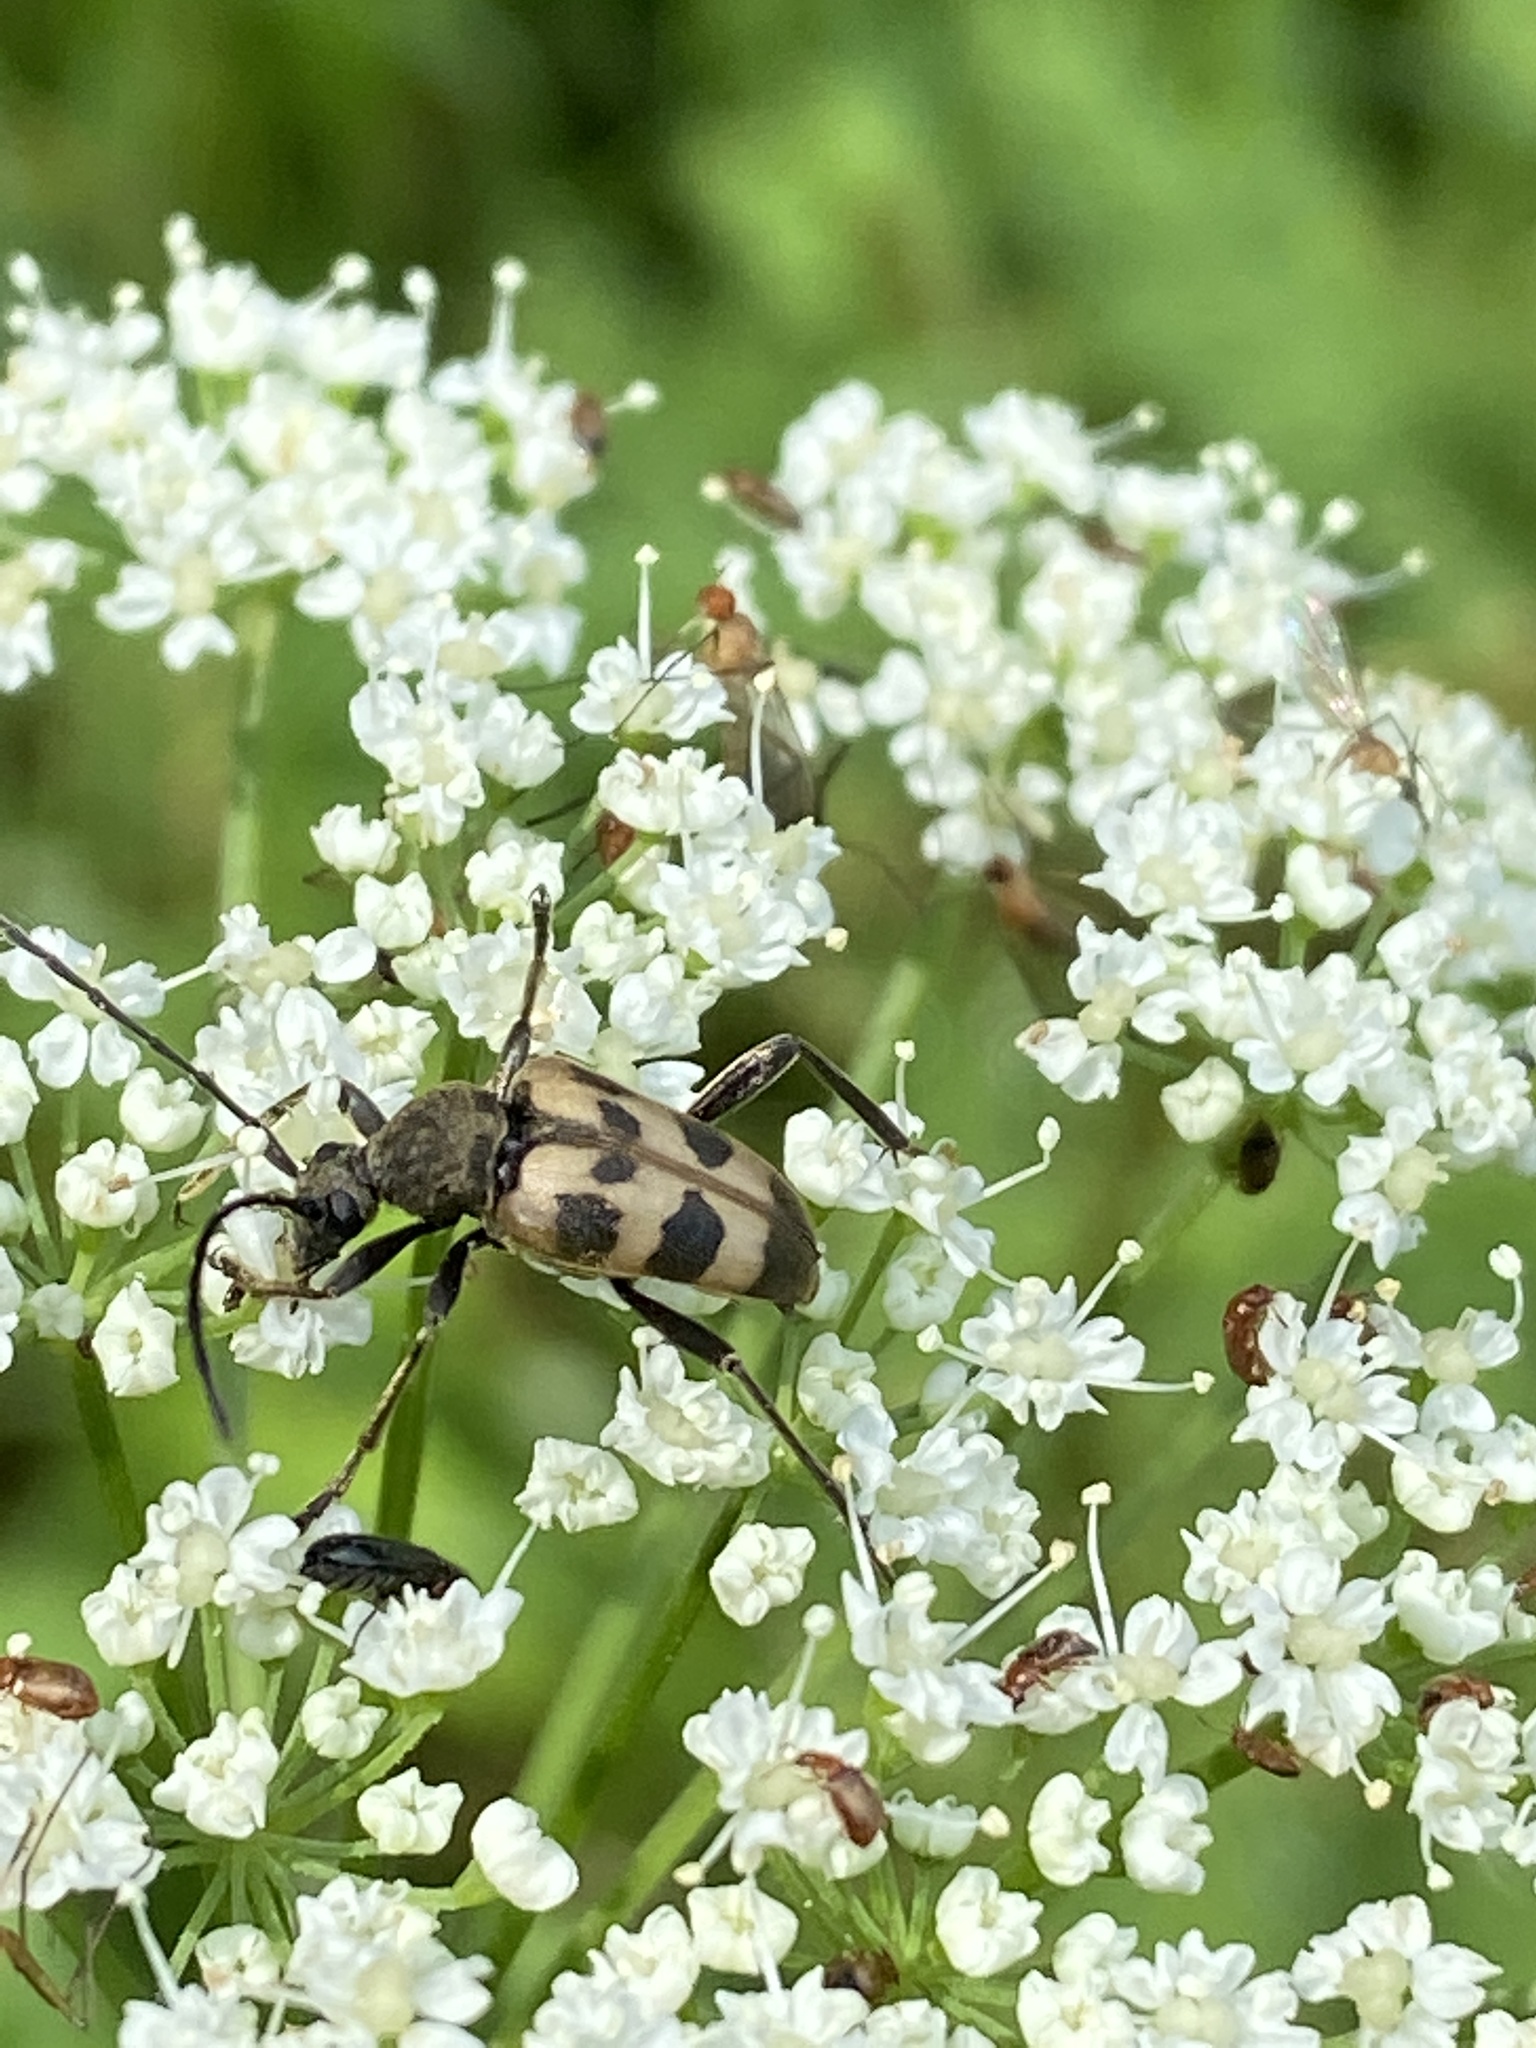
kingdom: Animalia
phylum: Arthropoda
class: Insecta
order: Coleoptera
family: Cerambycidae
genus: Pachytodes
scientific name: Pachytodes cerambyciformis
